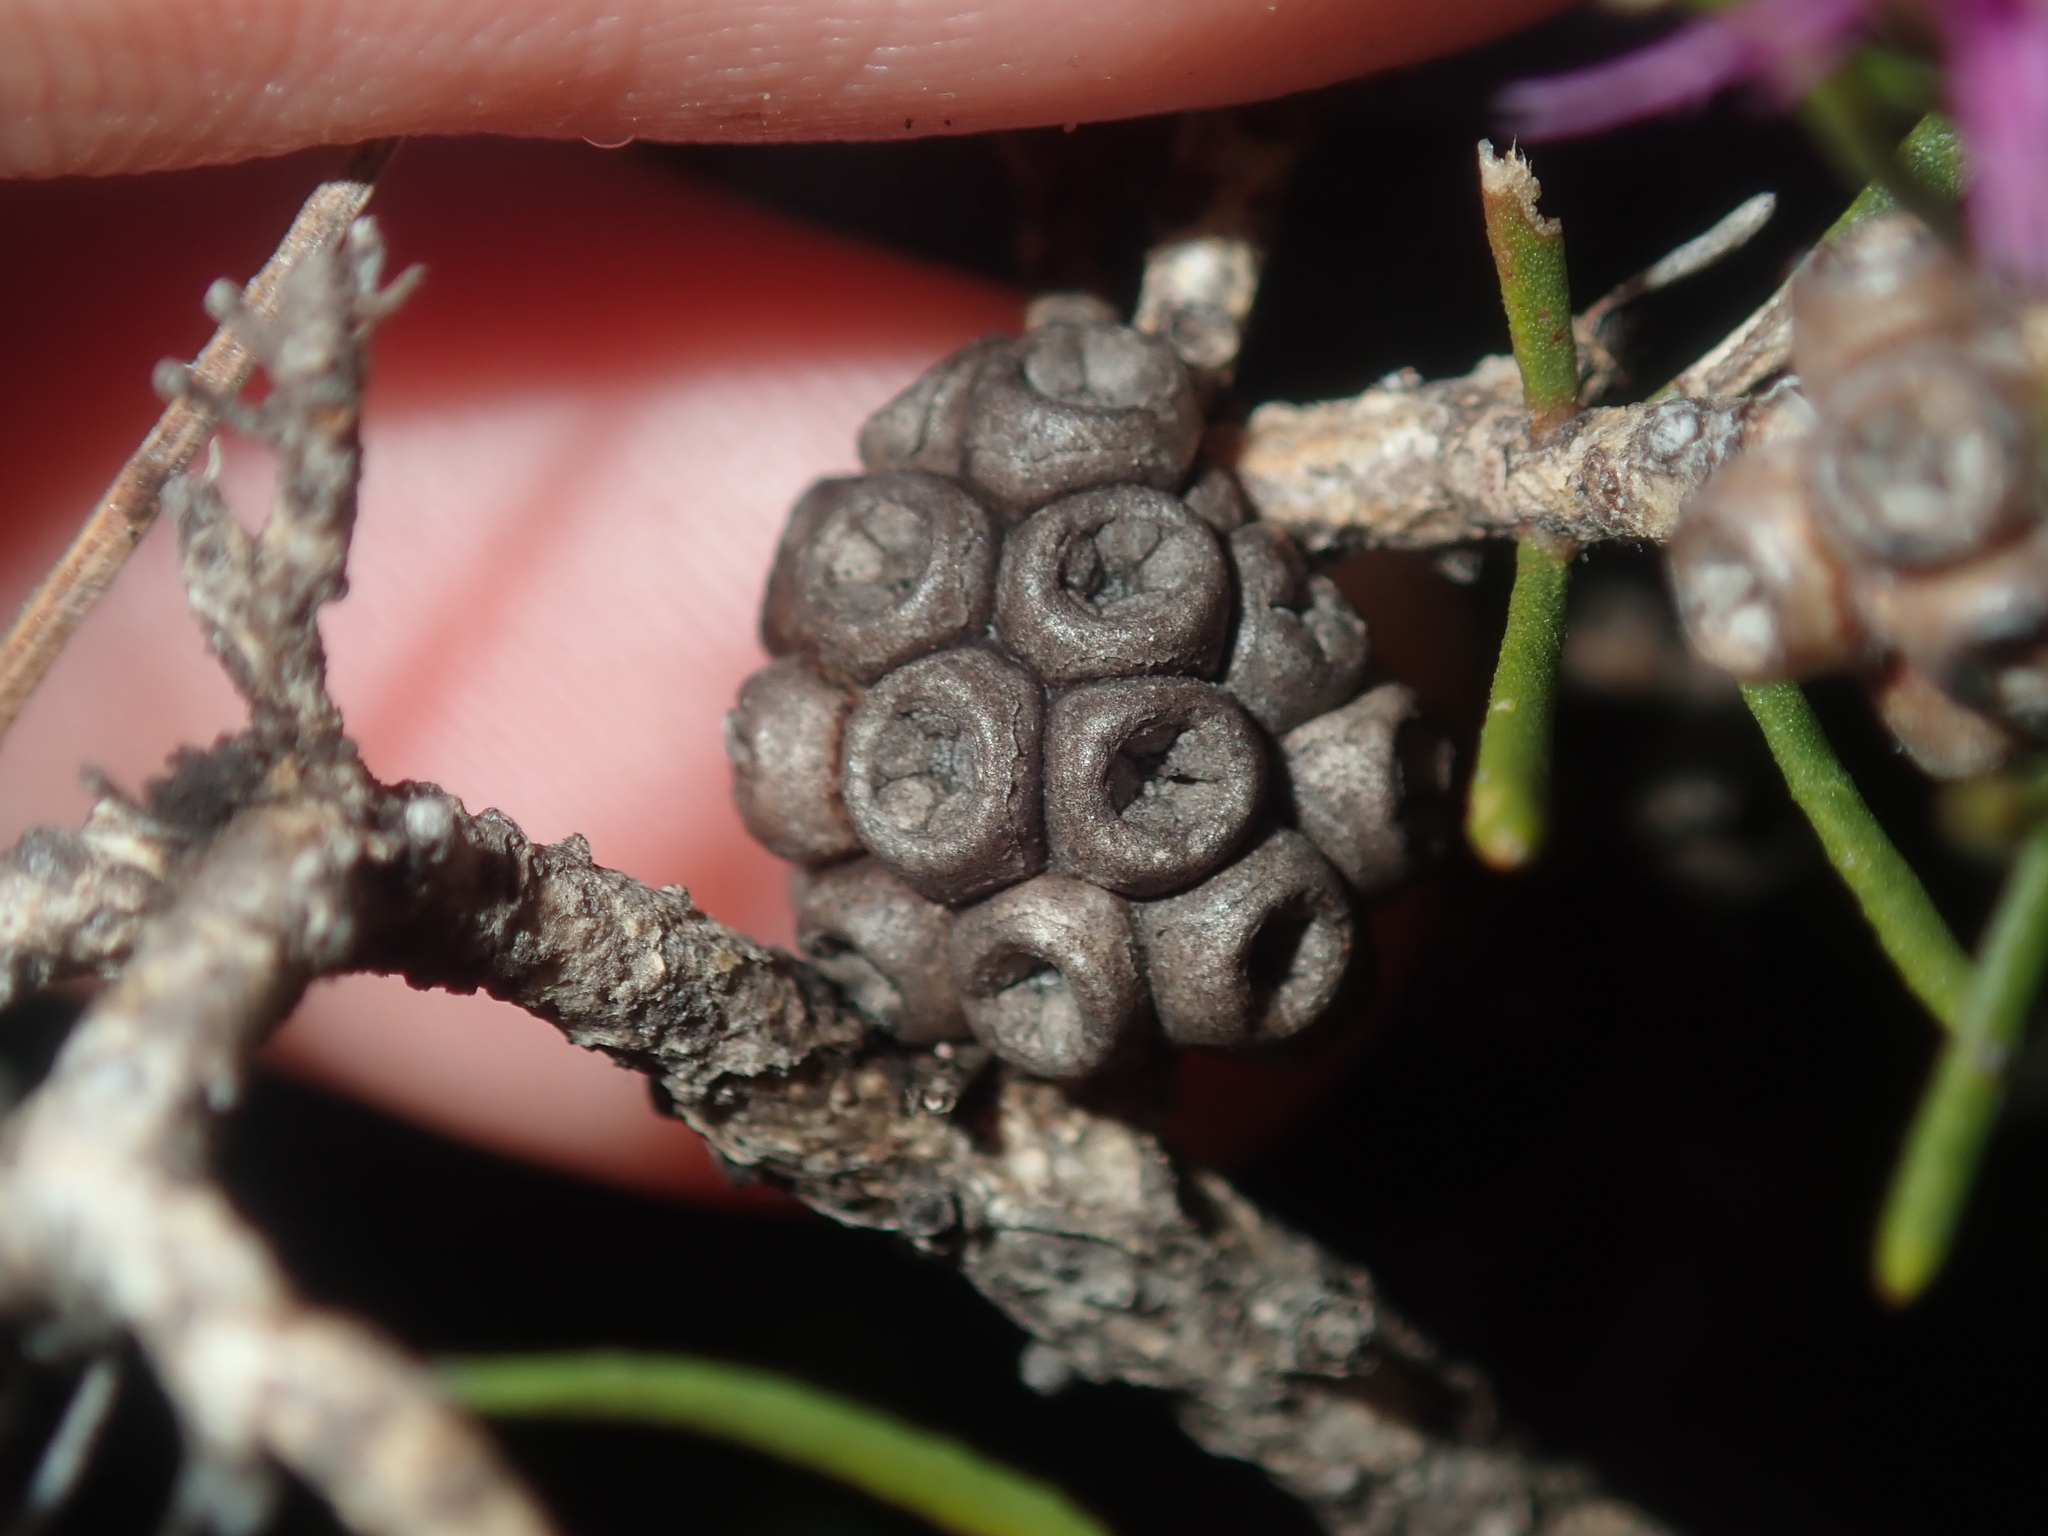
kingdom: Plantae
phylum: Tracheophyta
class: Magnoliopsida
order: Myrtales
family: Myrtaceae
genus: Melaleuca
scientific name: Melaleuca tinkeri
